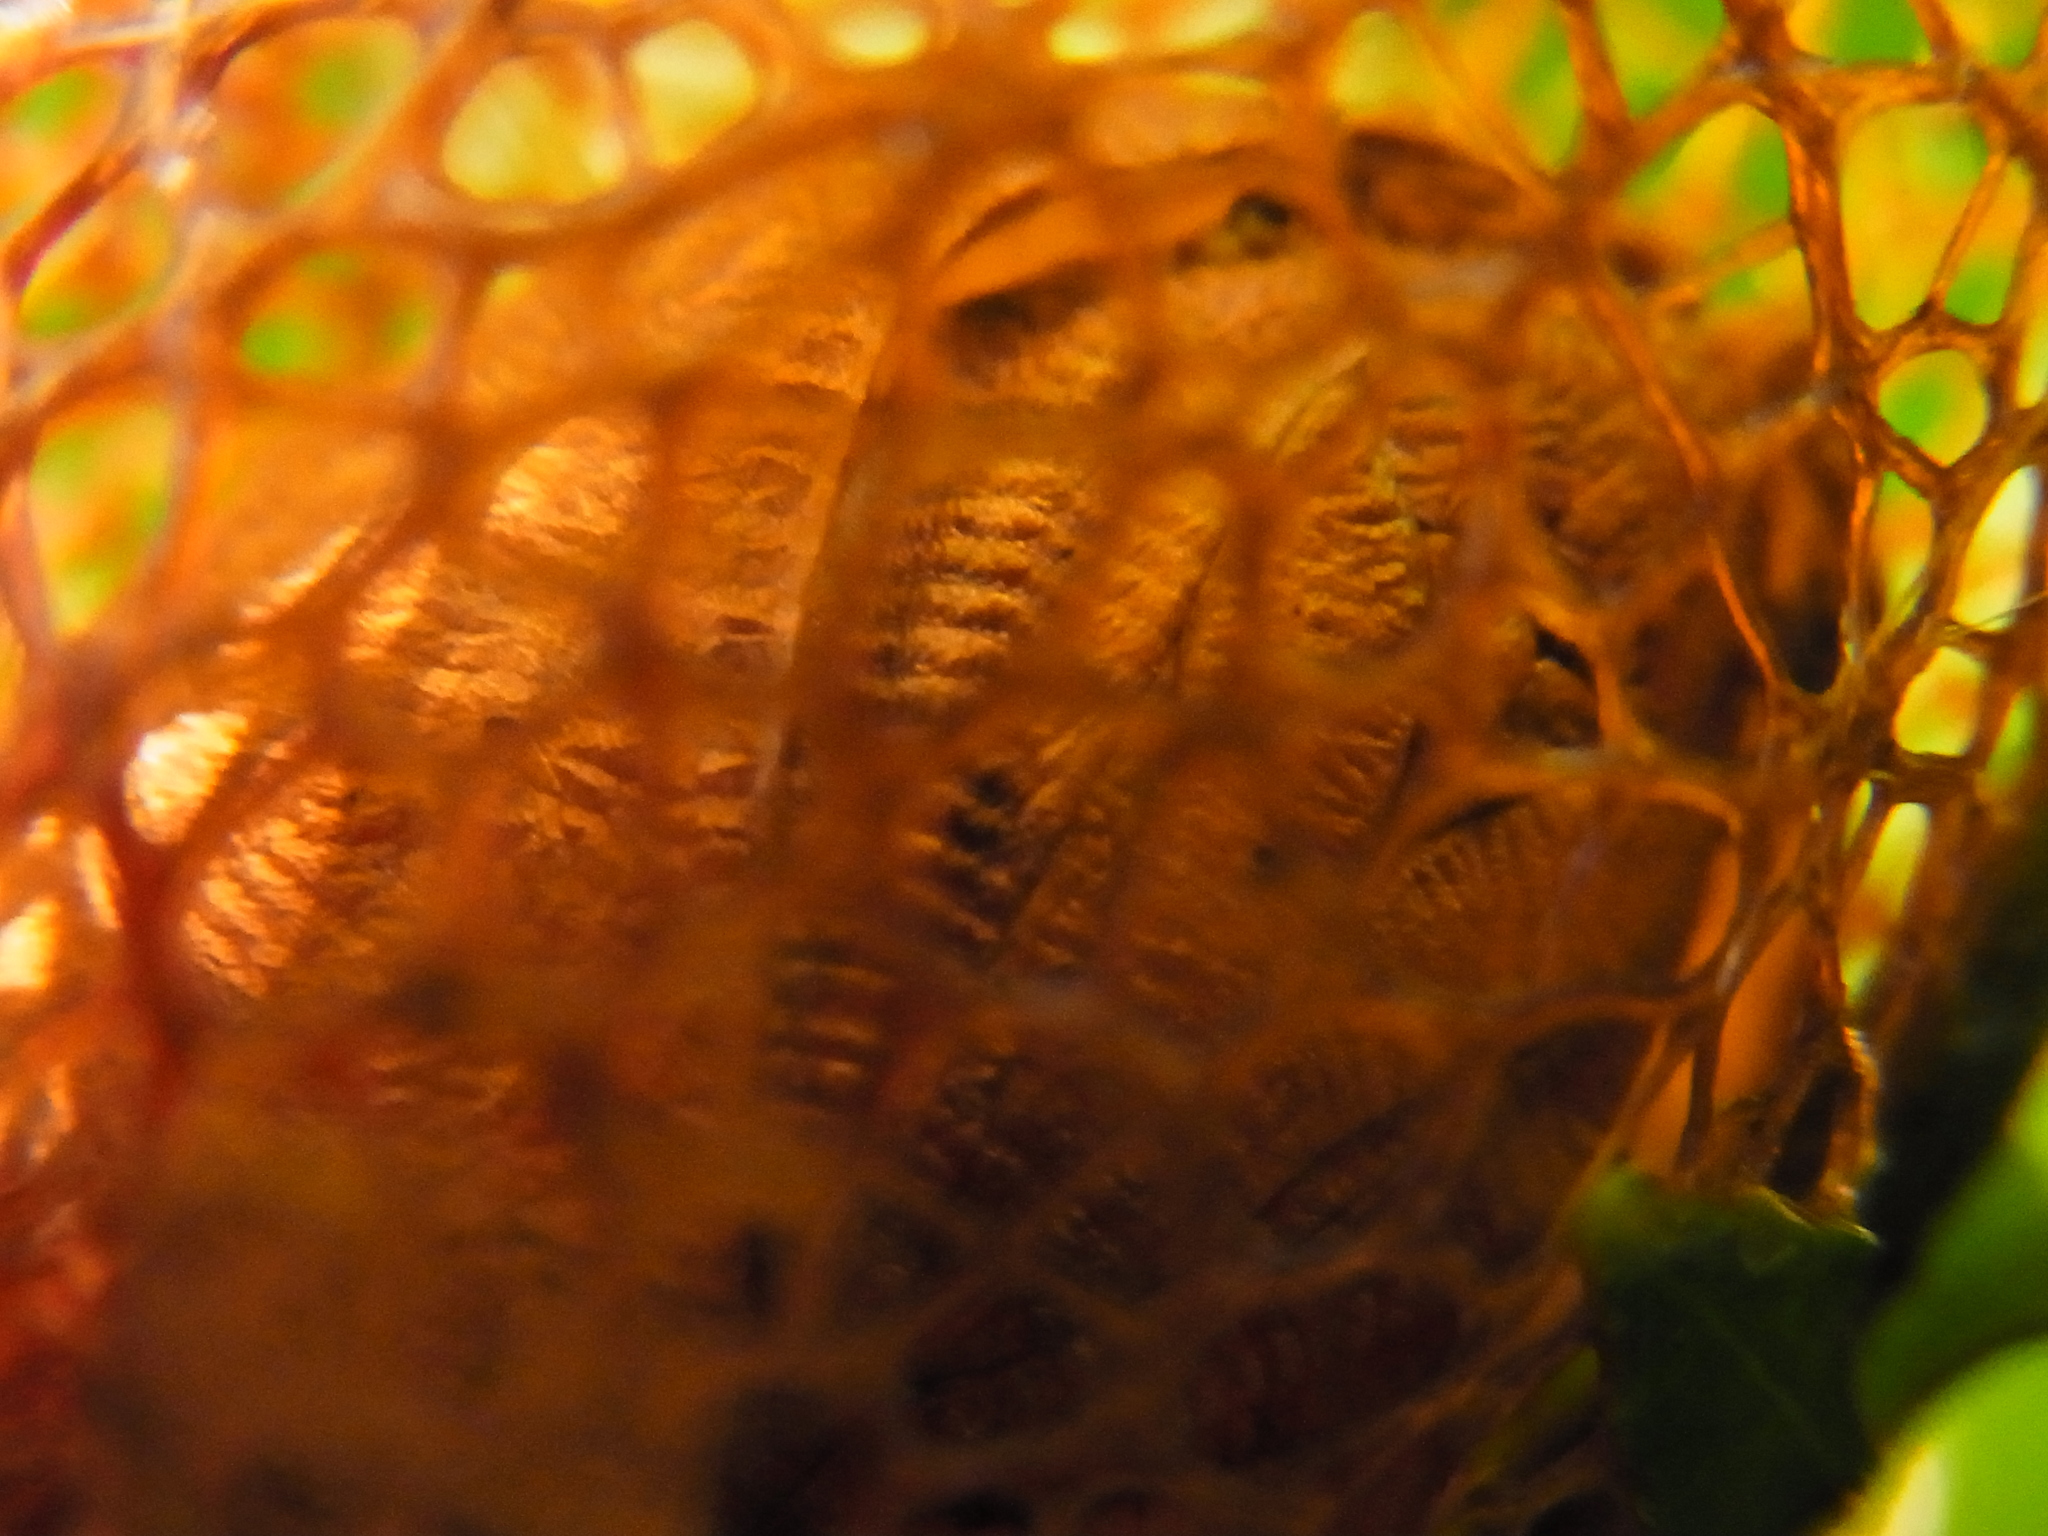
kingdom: Animalia
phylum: Arthropoda
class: Insecta
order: Lepidoptera
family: Saturniidae
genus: Saturnia
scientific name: Saturnia japonica
